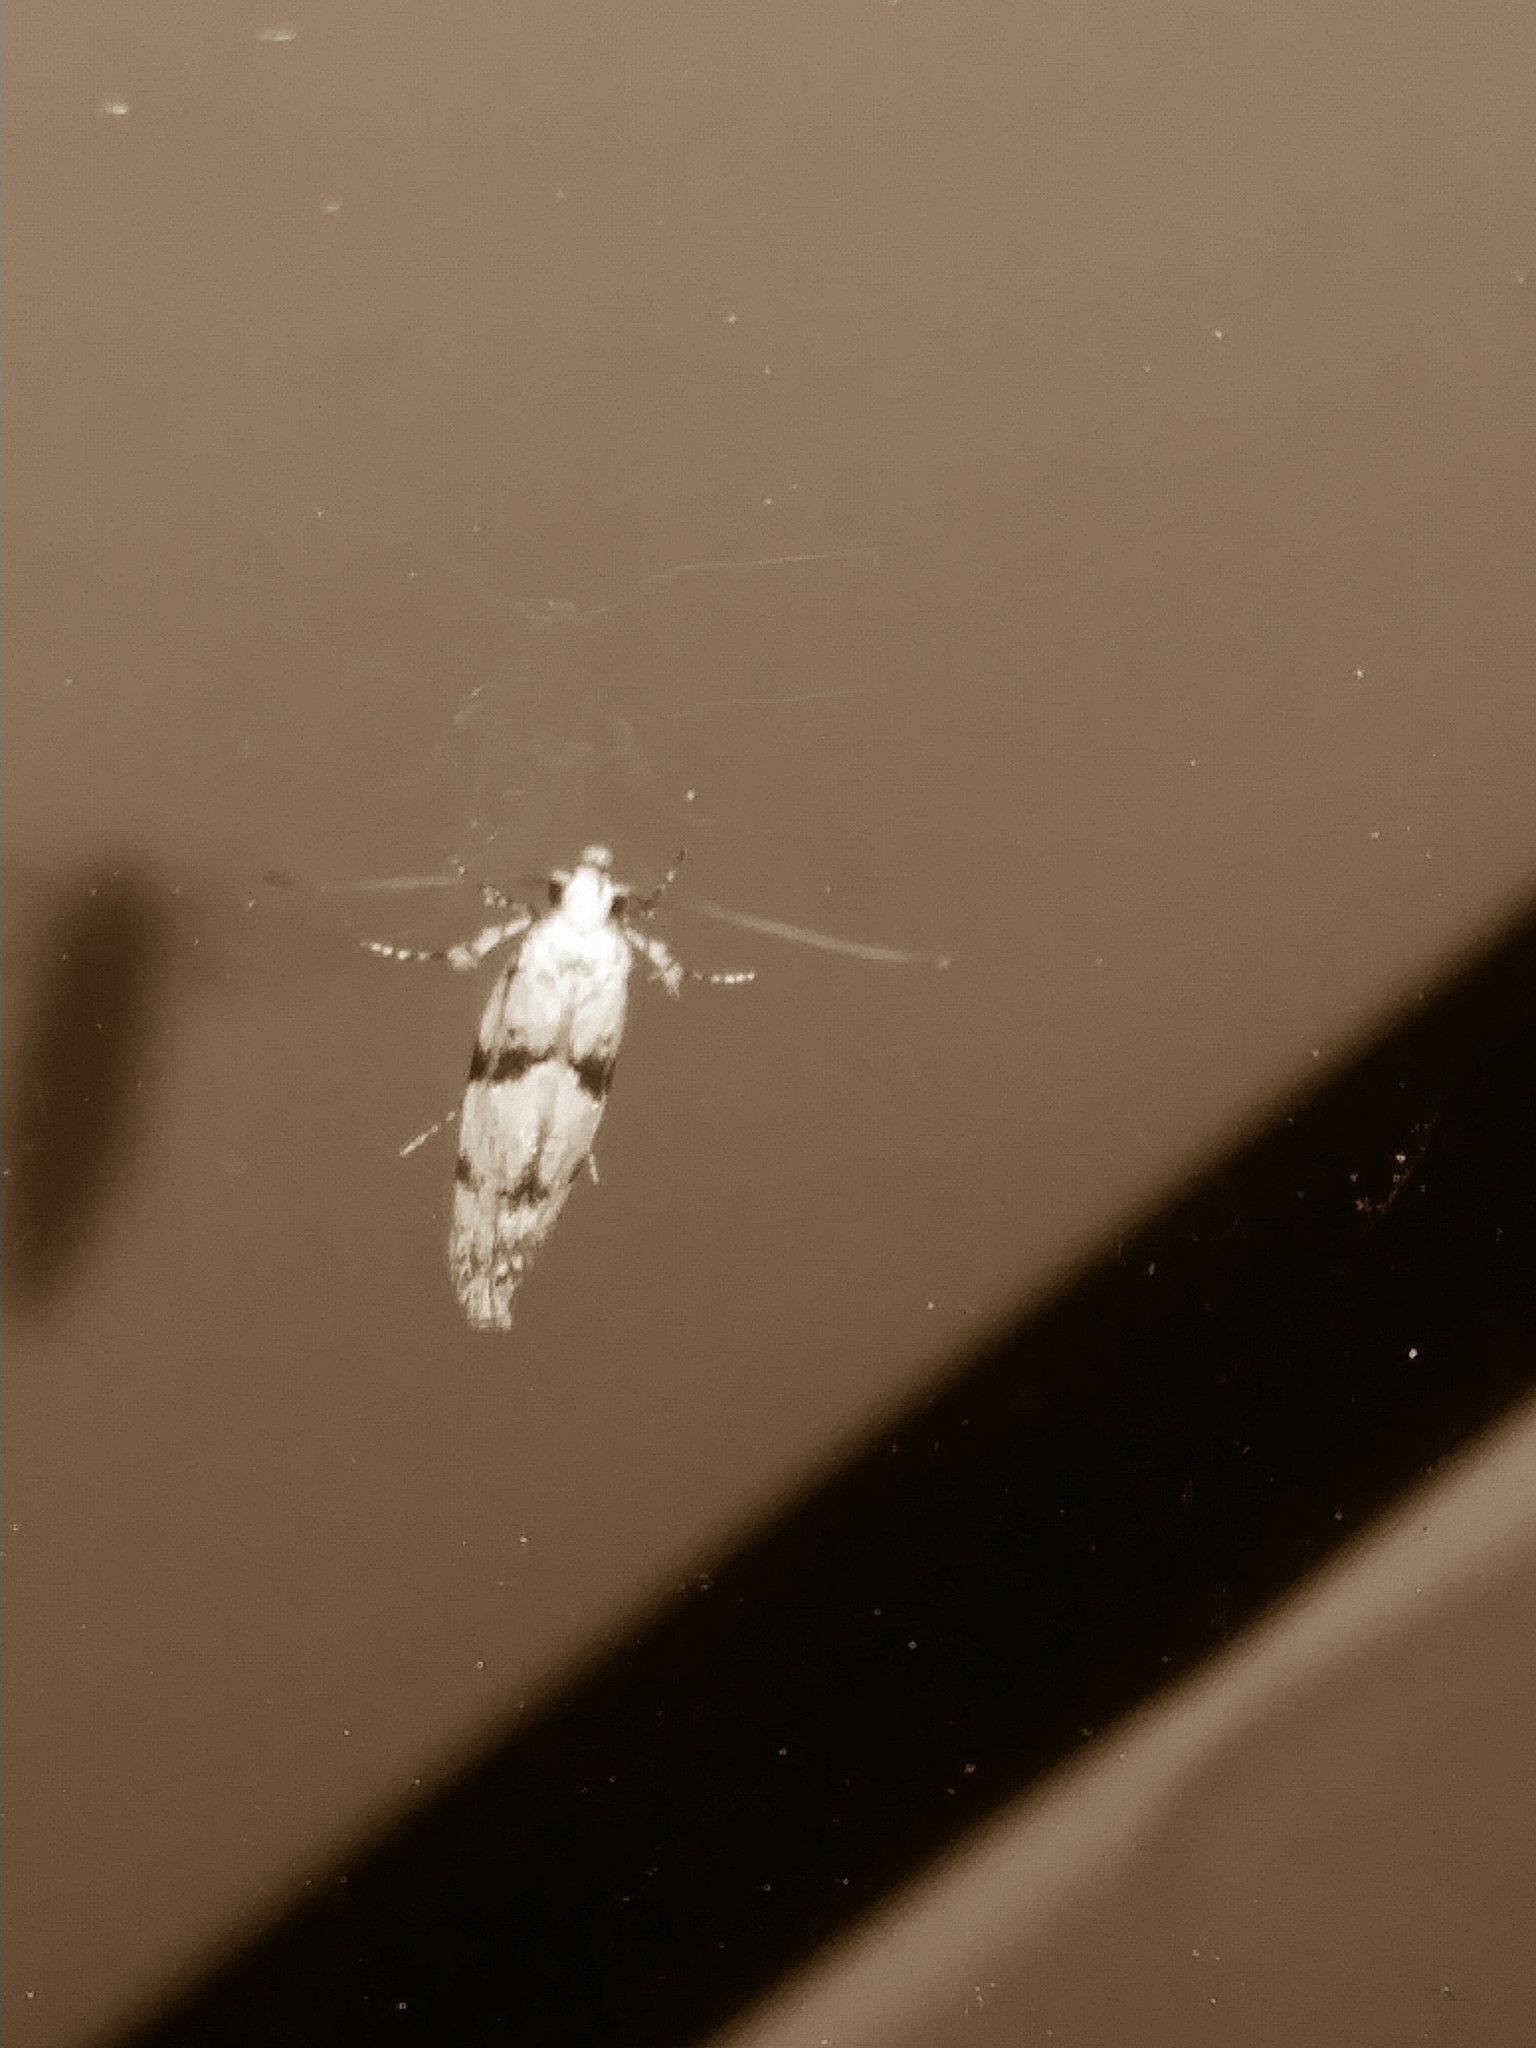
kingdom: Animalia
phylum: Arthropoda
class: Insecta
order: Lepidoptera
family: Gelechiidae
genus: Arogalea
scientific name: Arogalea cristifasciella
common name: White stripe-backed moth
